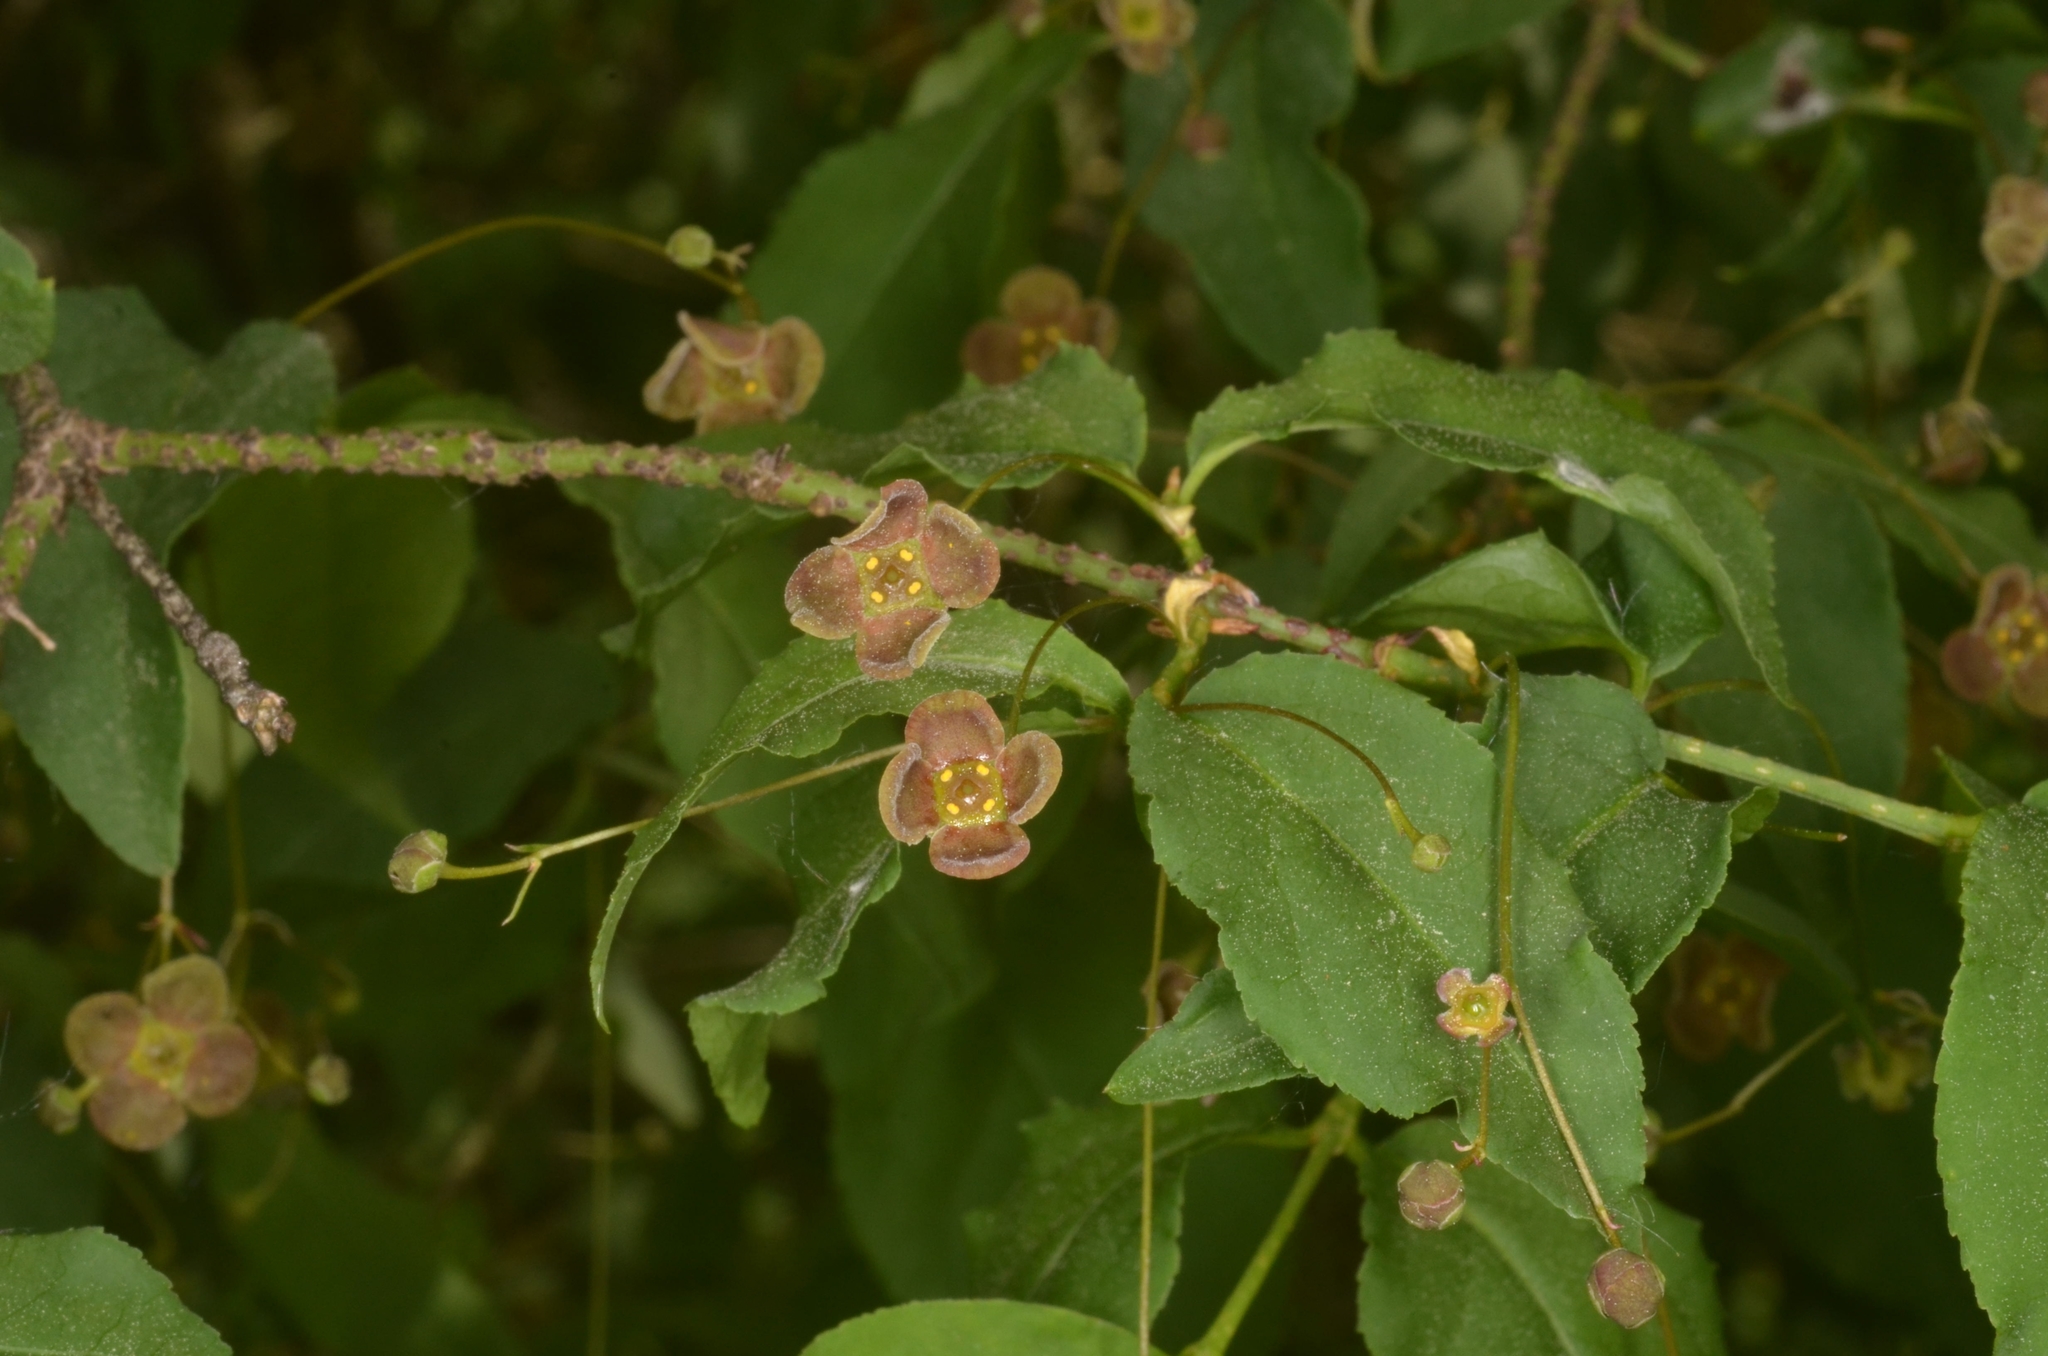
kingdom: Plantae
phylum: Tracheophyta
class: Magnoliopsida
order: Celastrales
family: Celastraceae
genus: Euonymus
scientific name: Euonymus verrucosus
